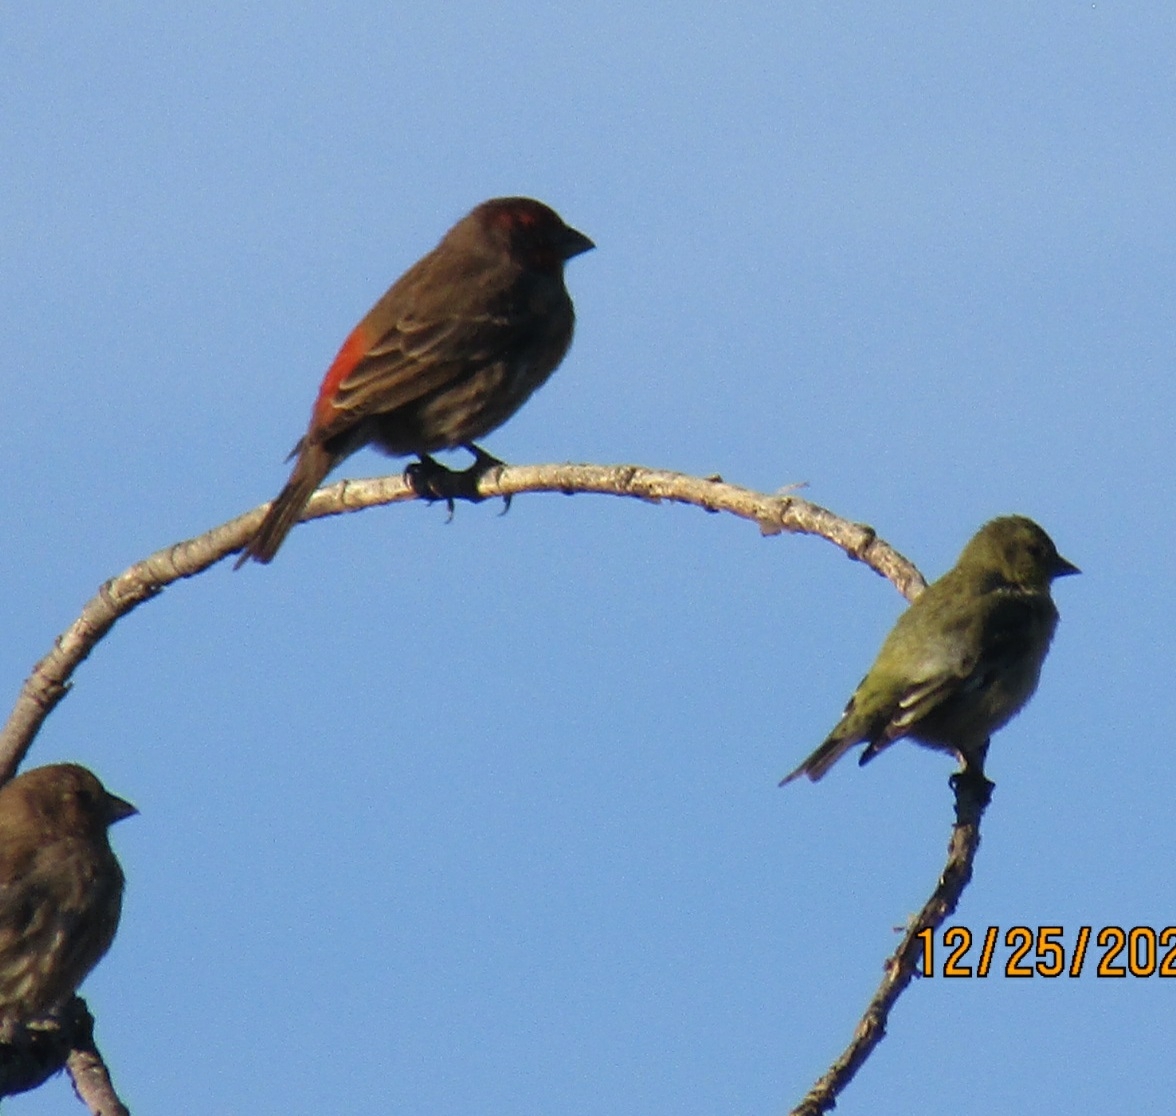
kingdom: Animalia
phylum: Chordata
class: Aves
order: Passeriformes
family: Fringillidae
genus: Haemorhous
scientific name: Haemorhous mexicanus
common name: House finch
